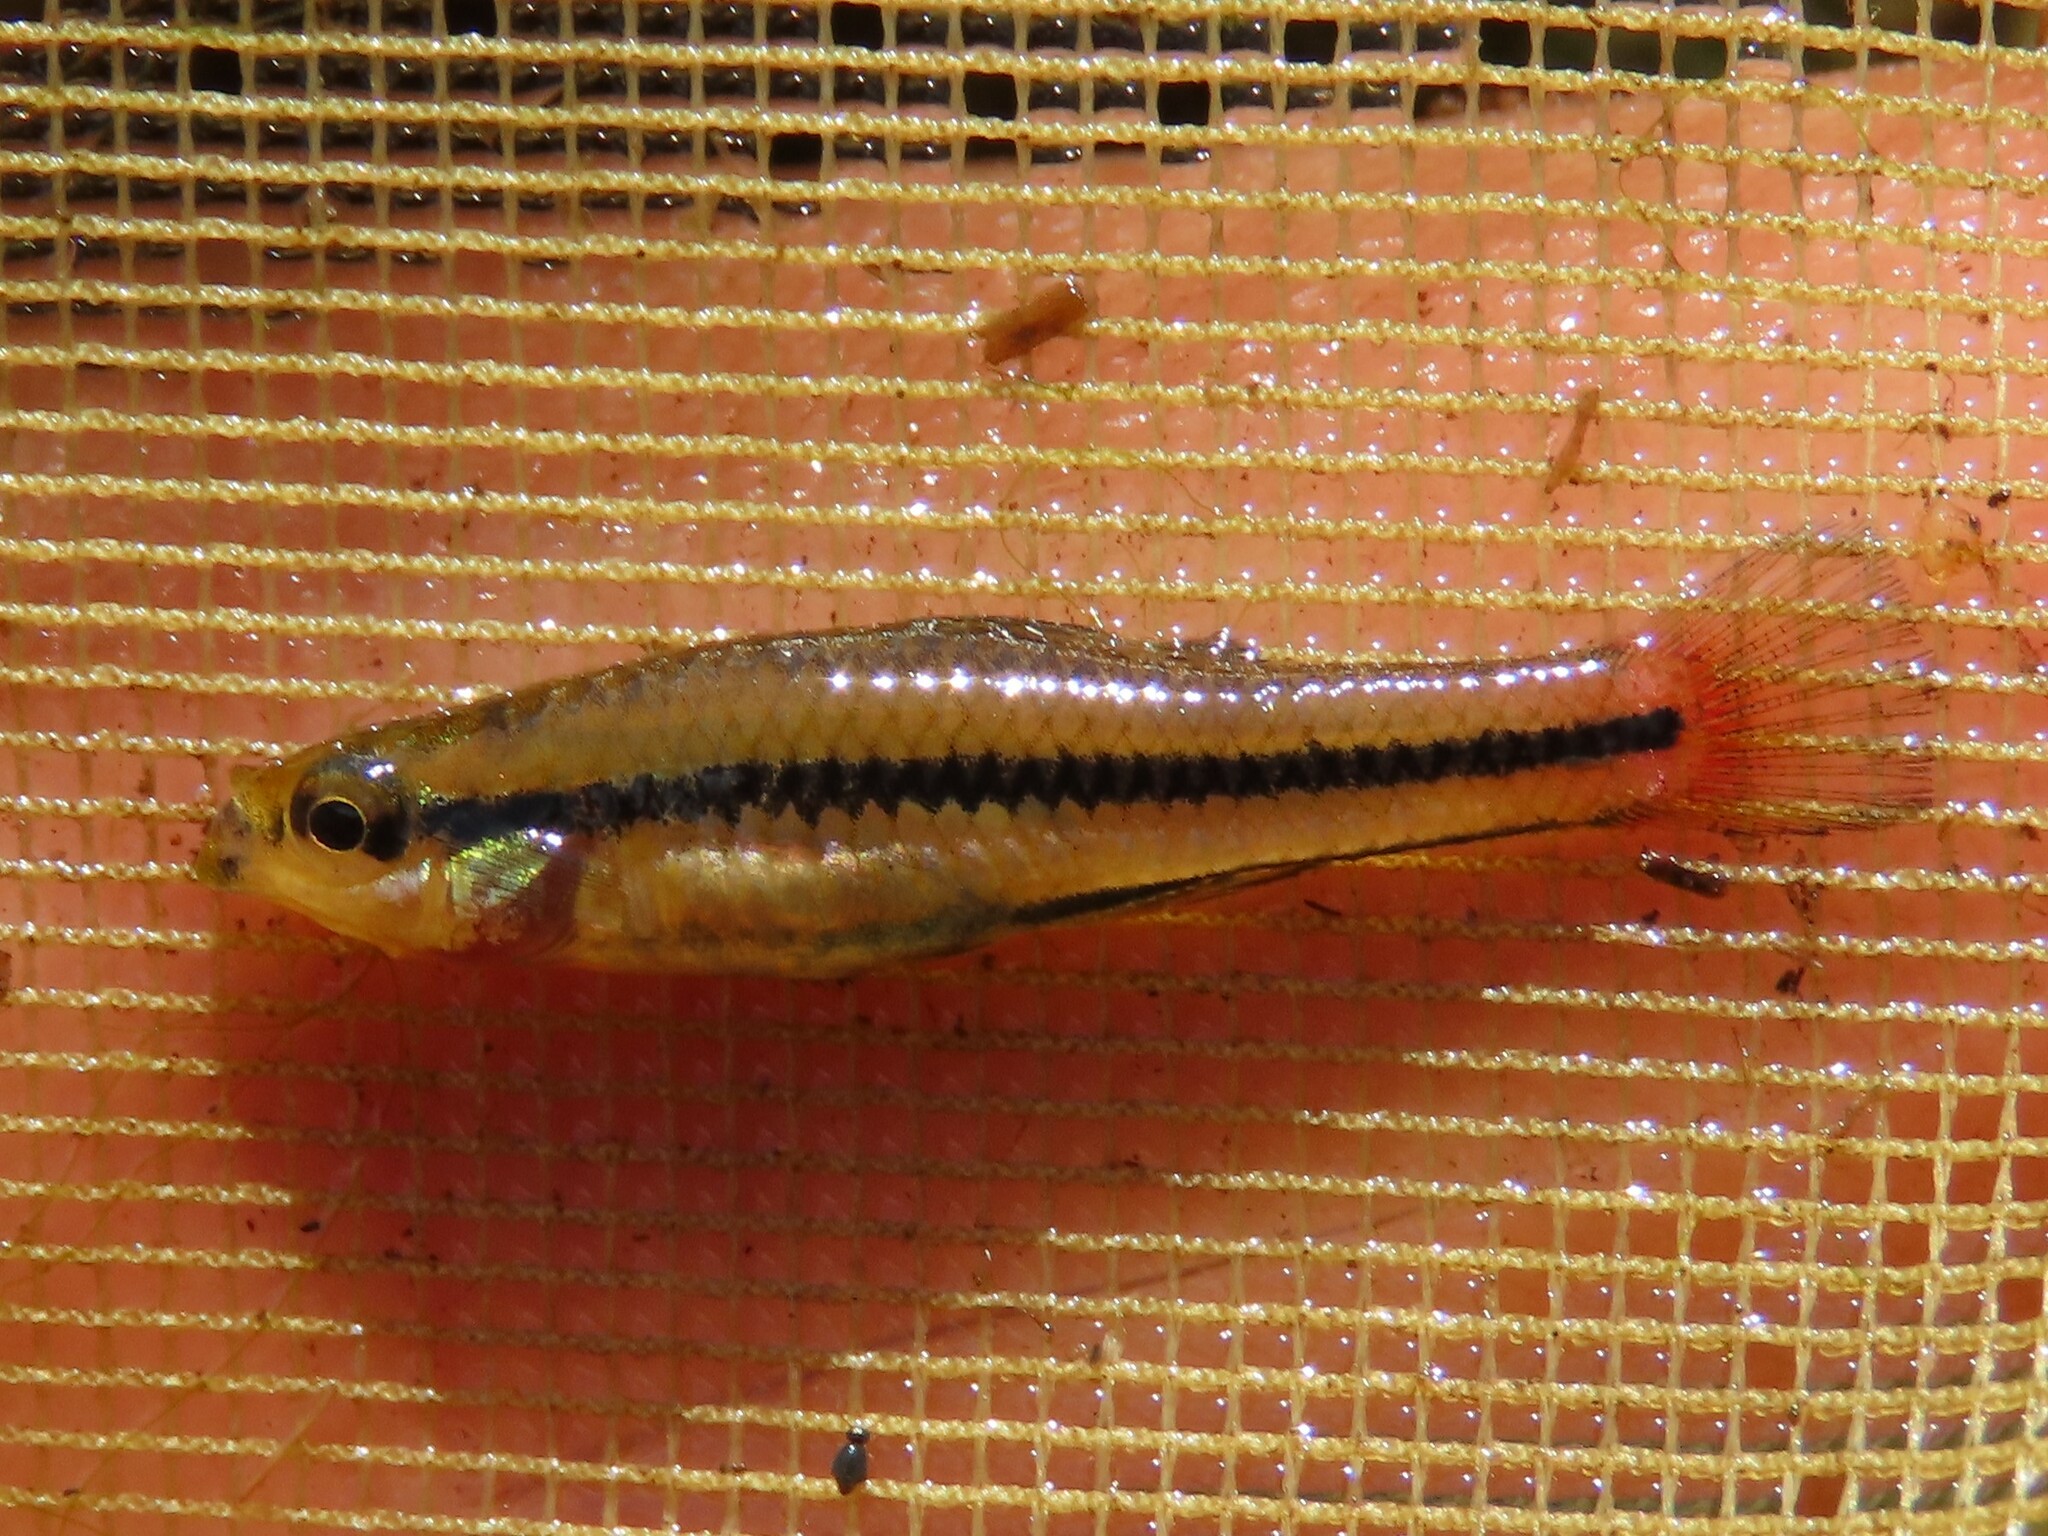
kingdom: Animalia
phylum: Chordata
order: Cyprinodontiformes
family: Fundulidae
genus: Lucania
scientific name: Lucania goodei
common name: Bluefin killifish
